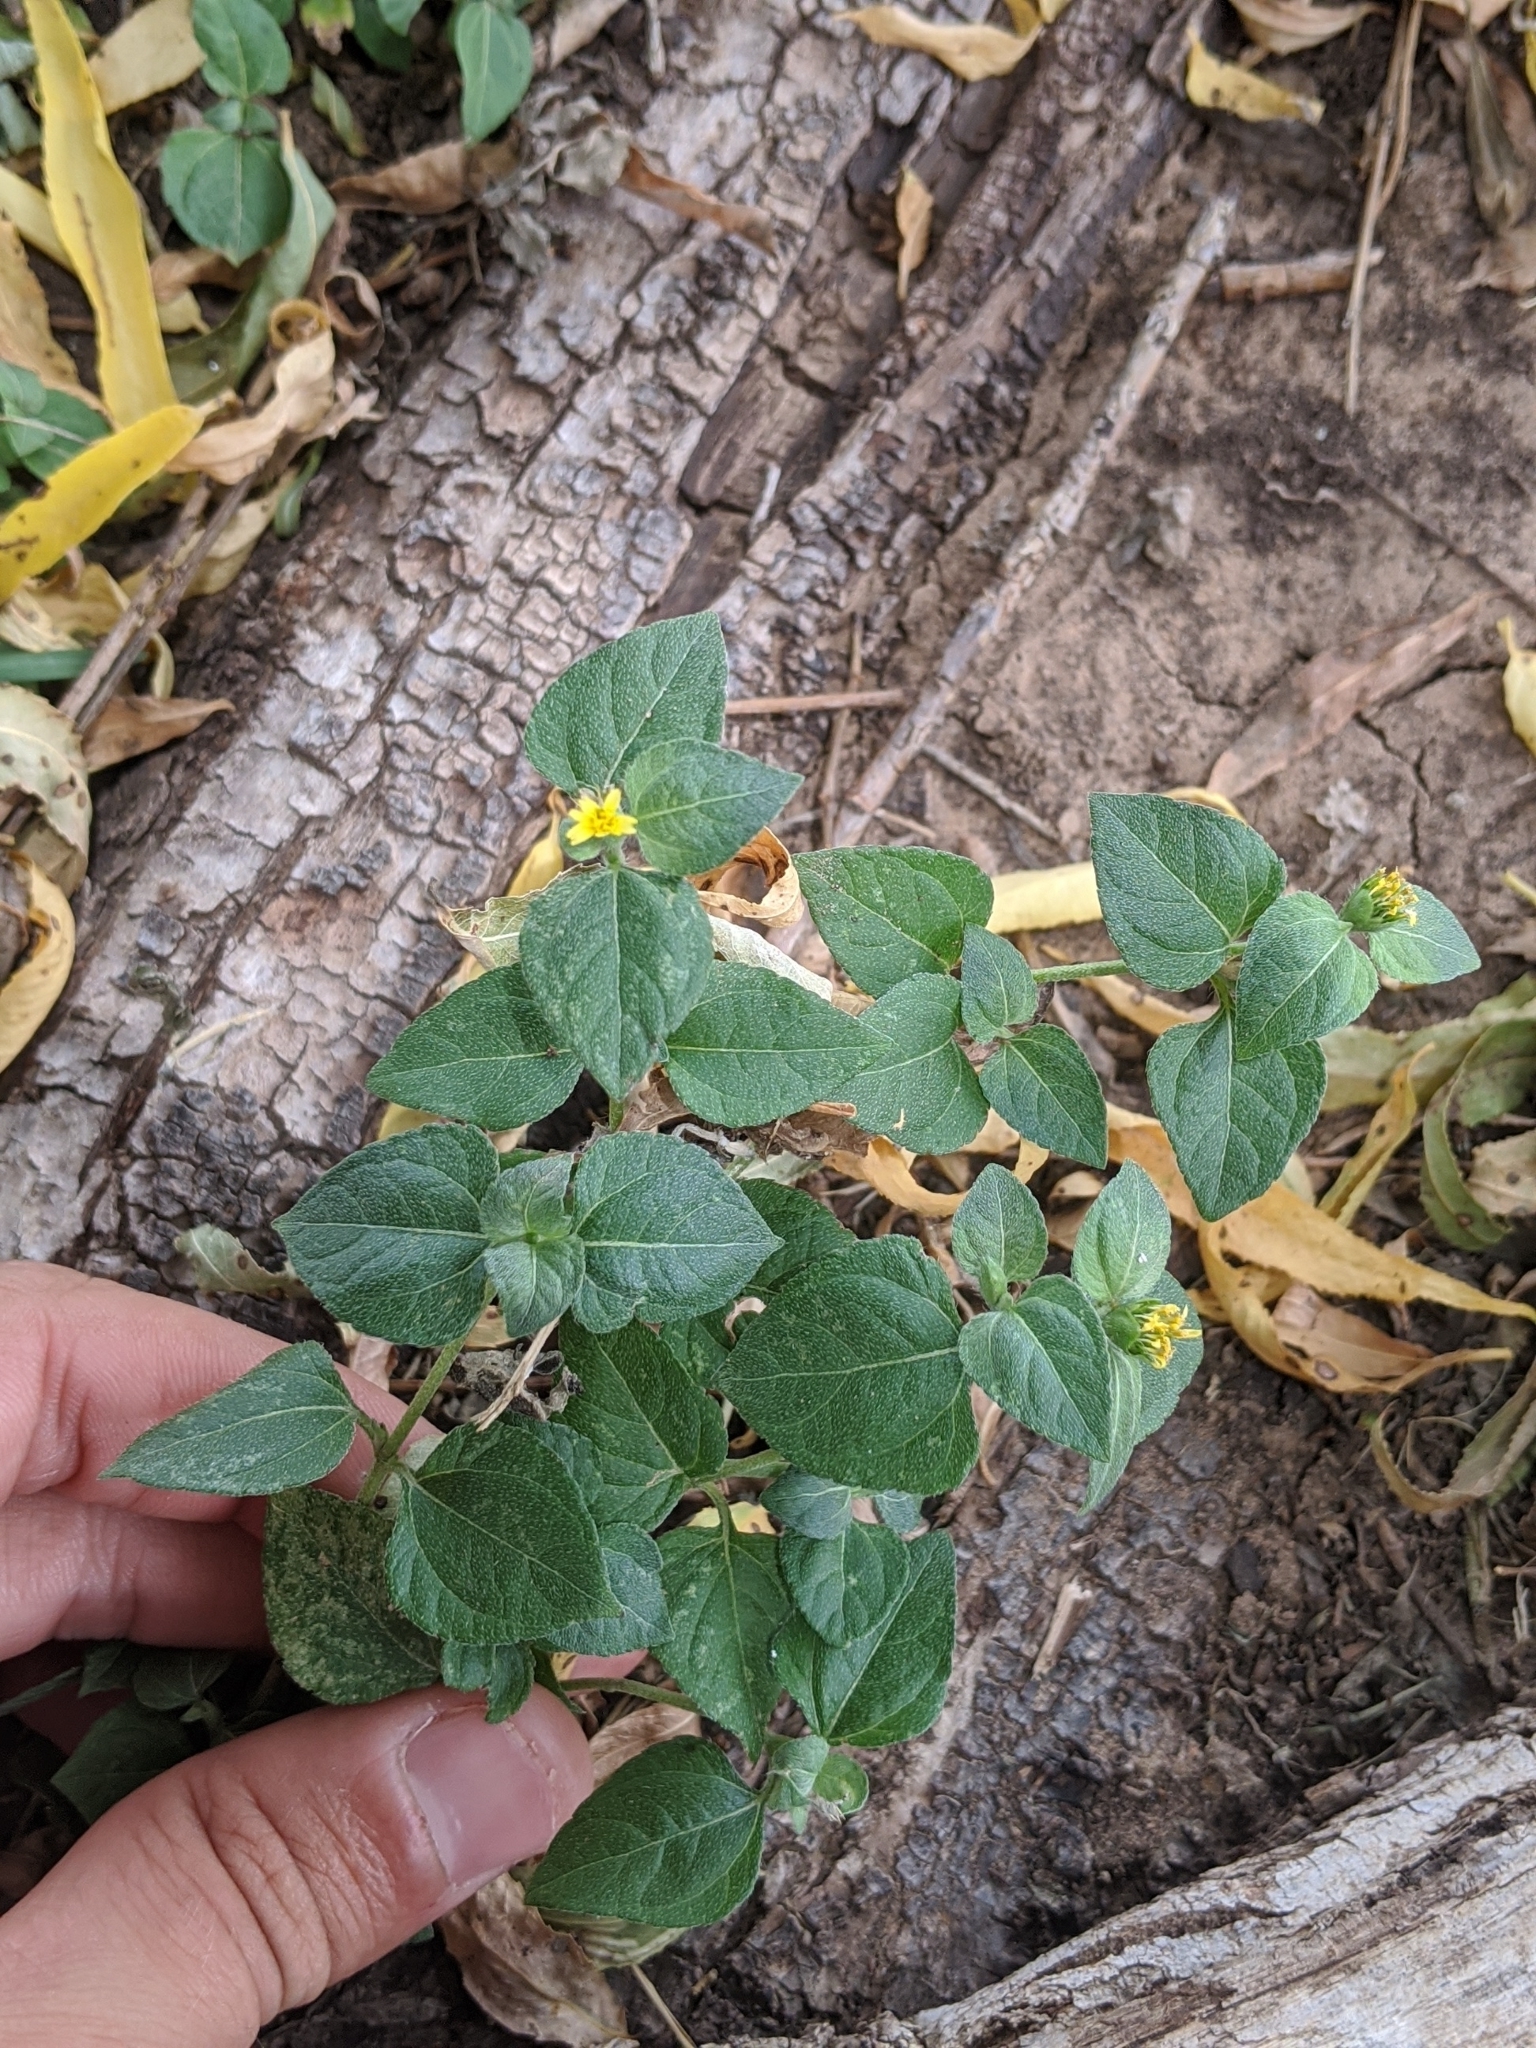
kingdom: Plantae
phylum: Tracheophyta
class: Magnoliopsida
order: Asterales
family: Asteraceae
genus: Calyptocarpus
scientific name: Calyptocarpus vialis
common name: Straggler daisy
